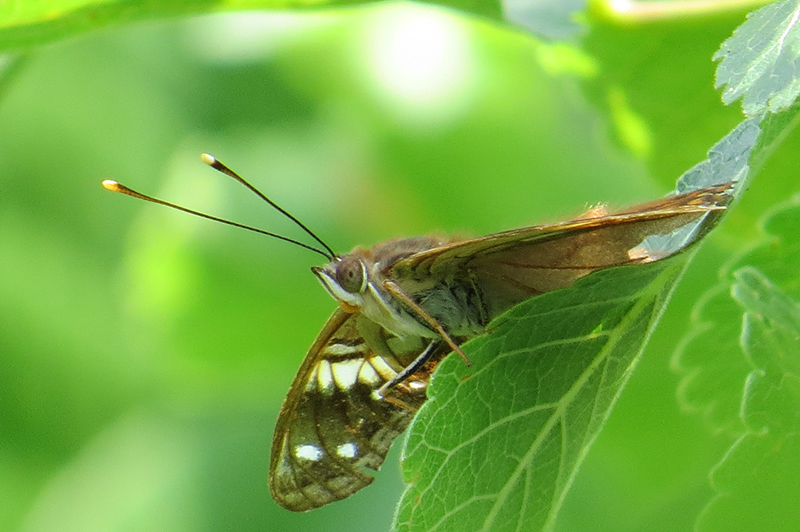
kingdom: Animalia
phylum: Arthropoda
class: Insecta
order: Lepidoptera
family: Nymphalidae
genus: Asterocampa
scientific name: Asterocampa idyja
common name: Dusky emperor
